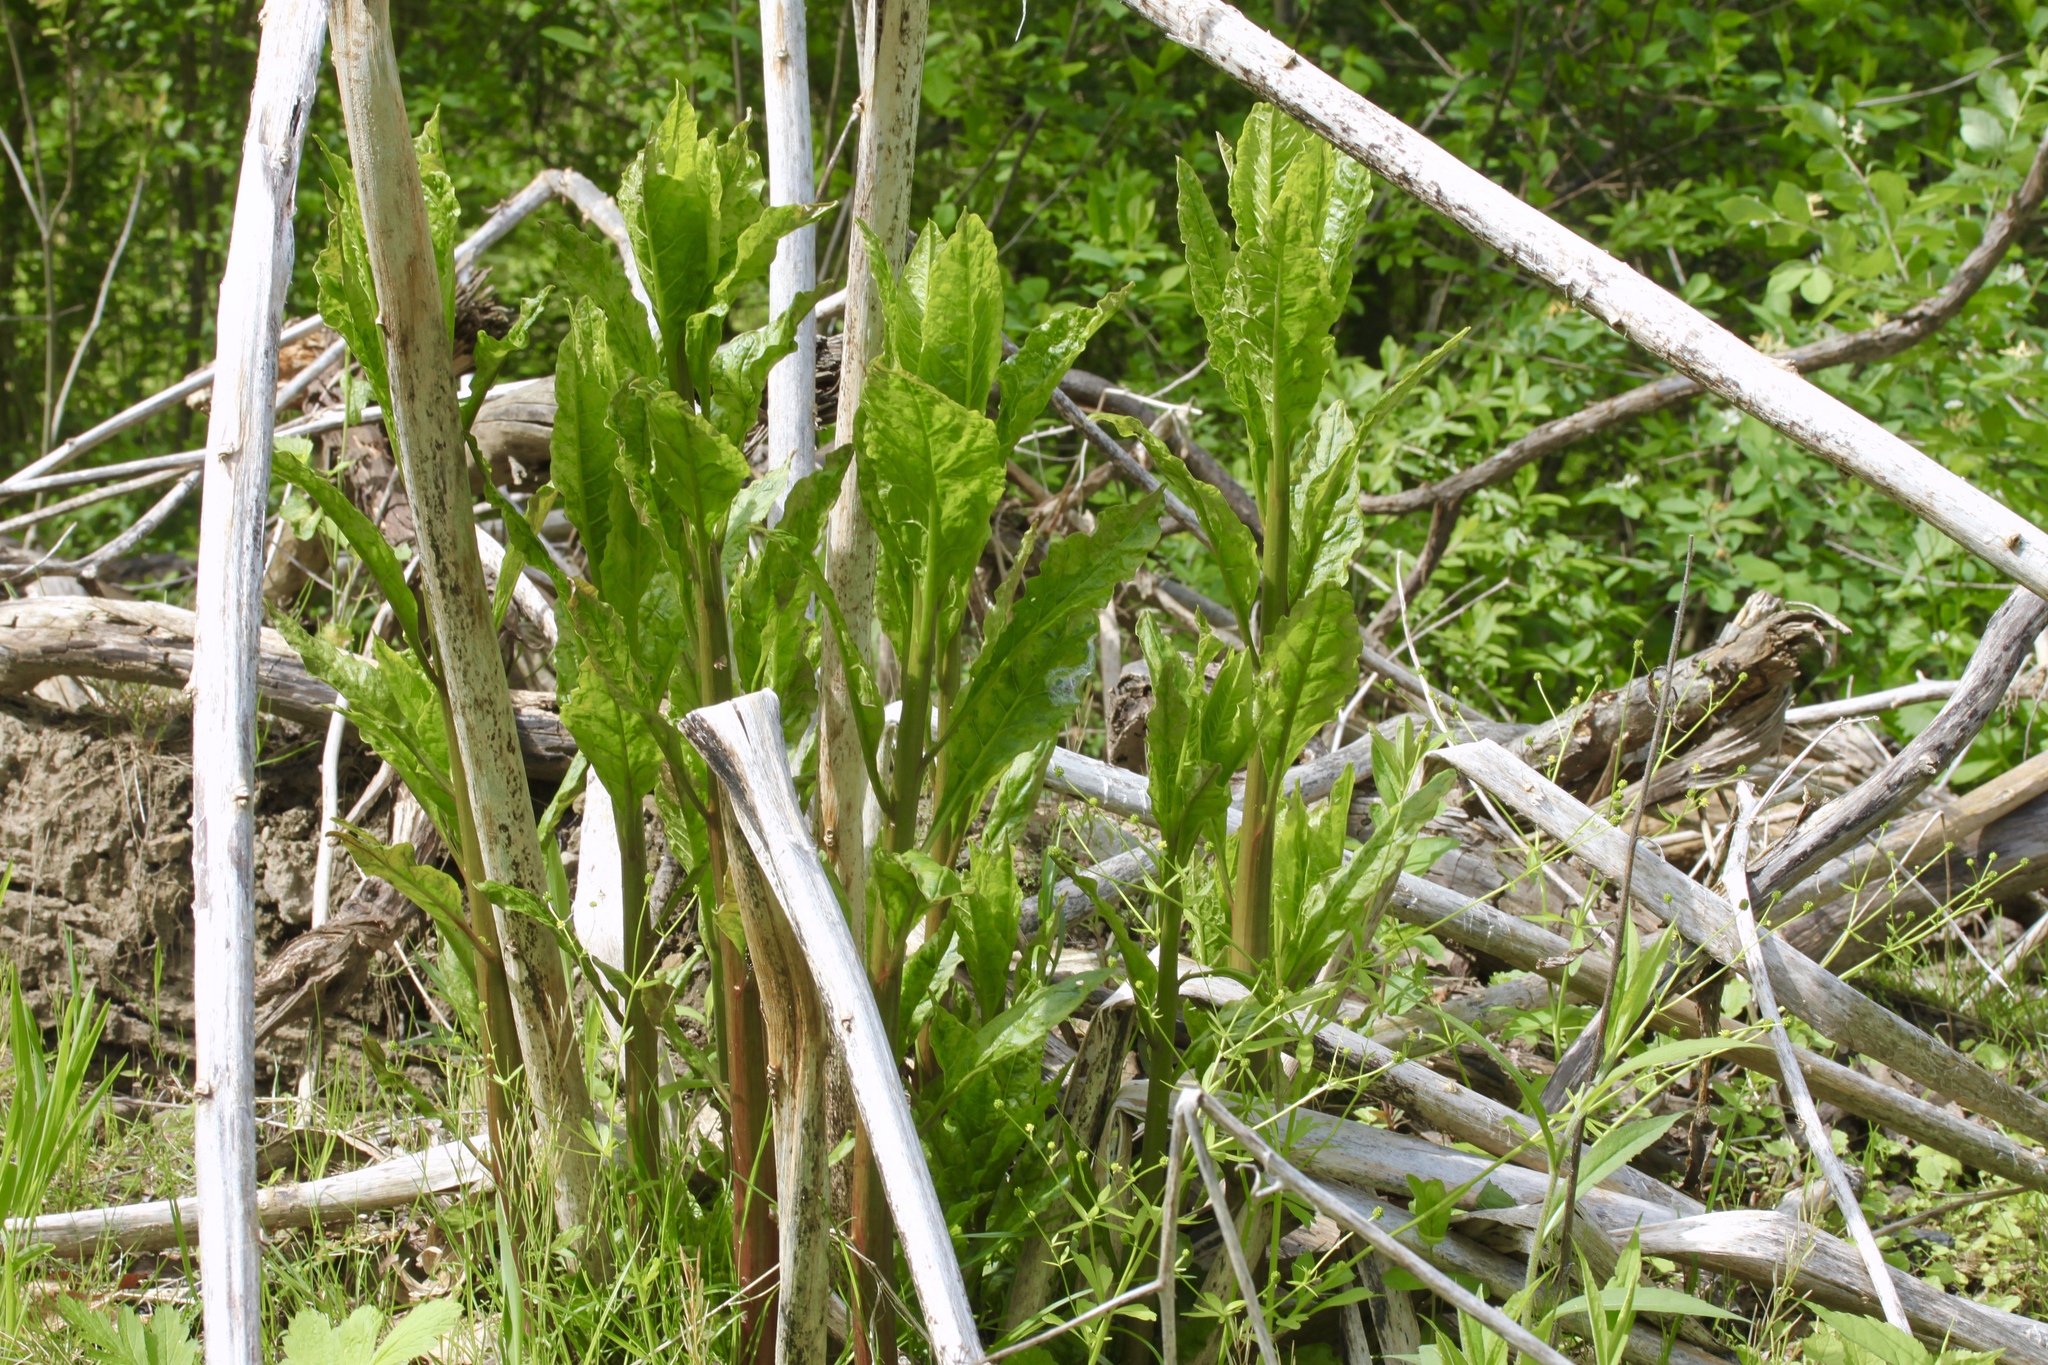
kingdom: Plantae
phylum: Tracheophyta
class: Magnoliopsida
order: Caryophyllales
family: Phytolaccaceae
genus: Phytolacca
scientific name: Phytolacca americana
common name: American pokeweed
